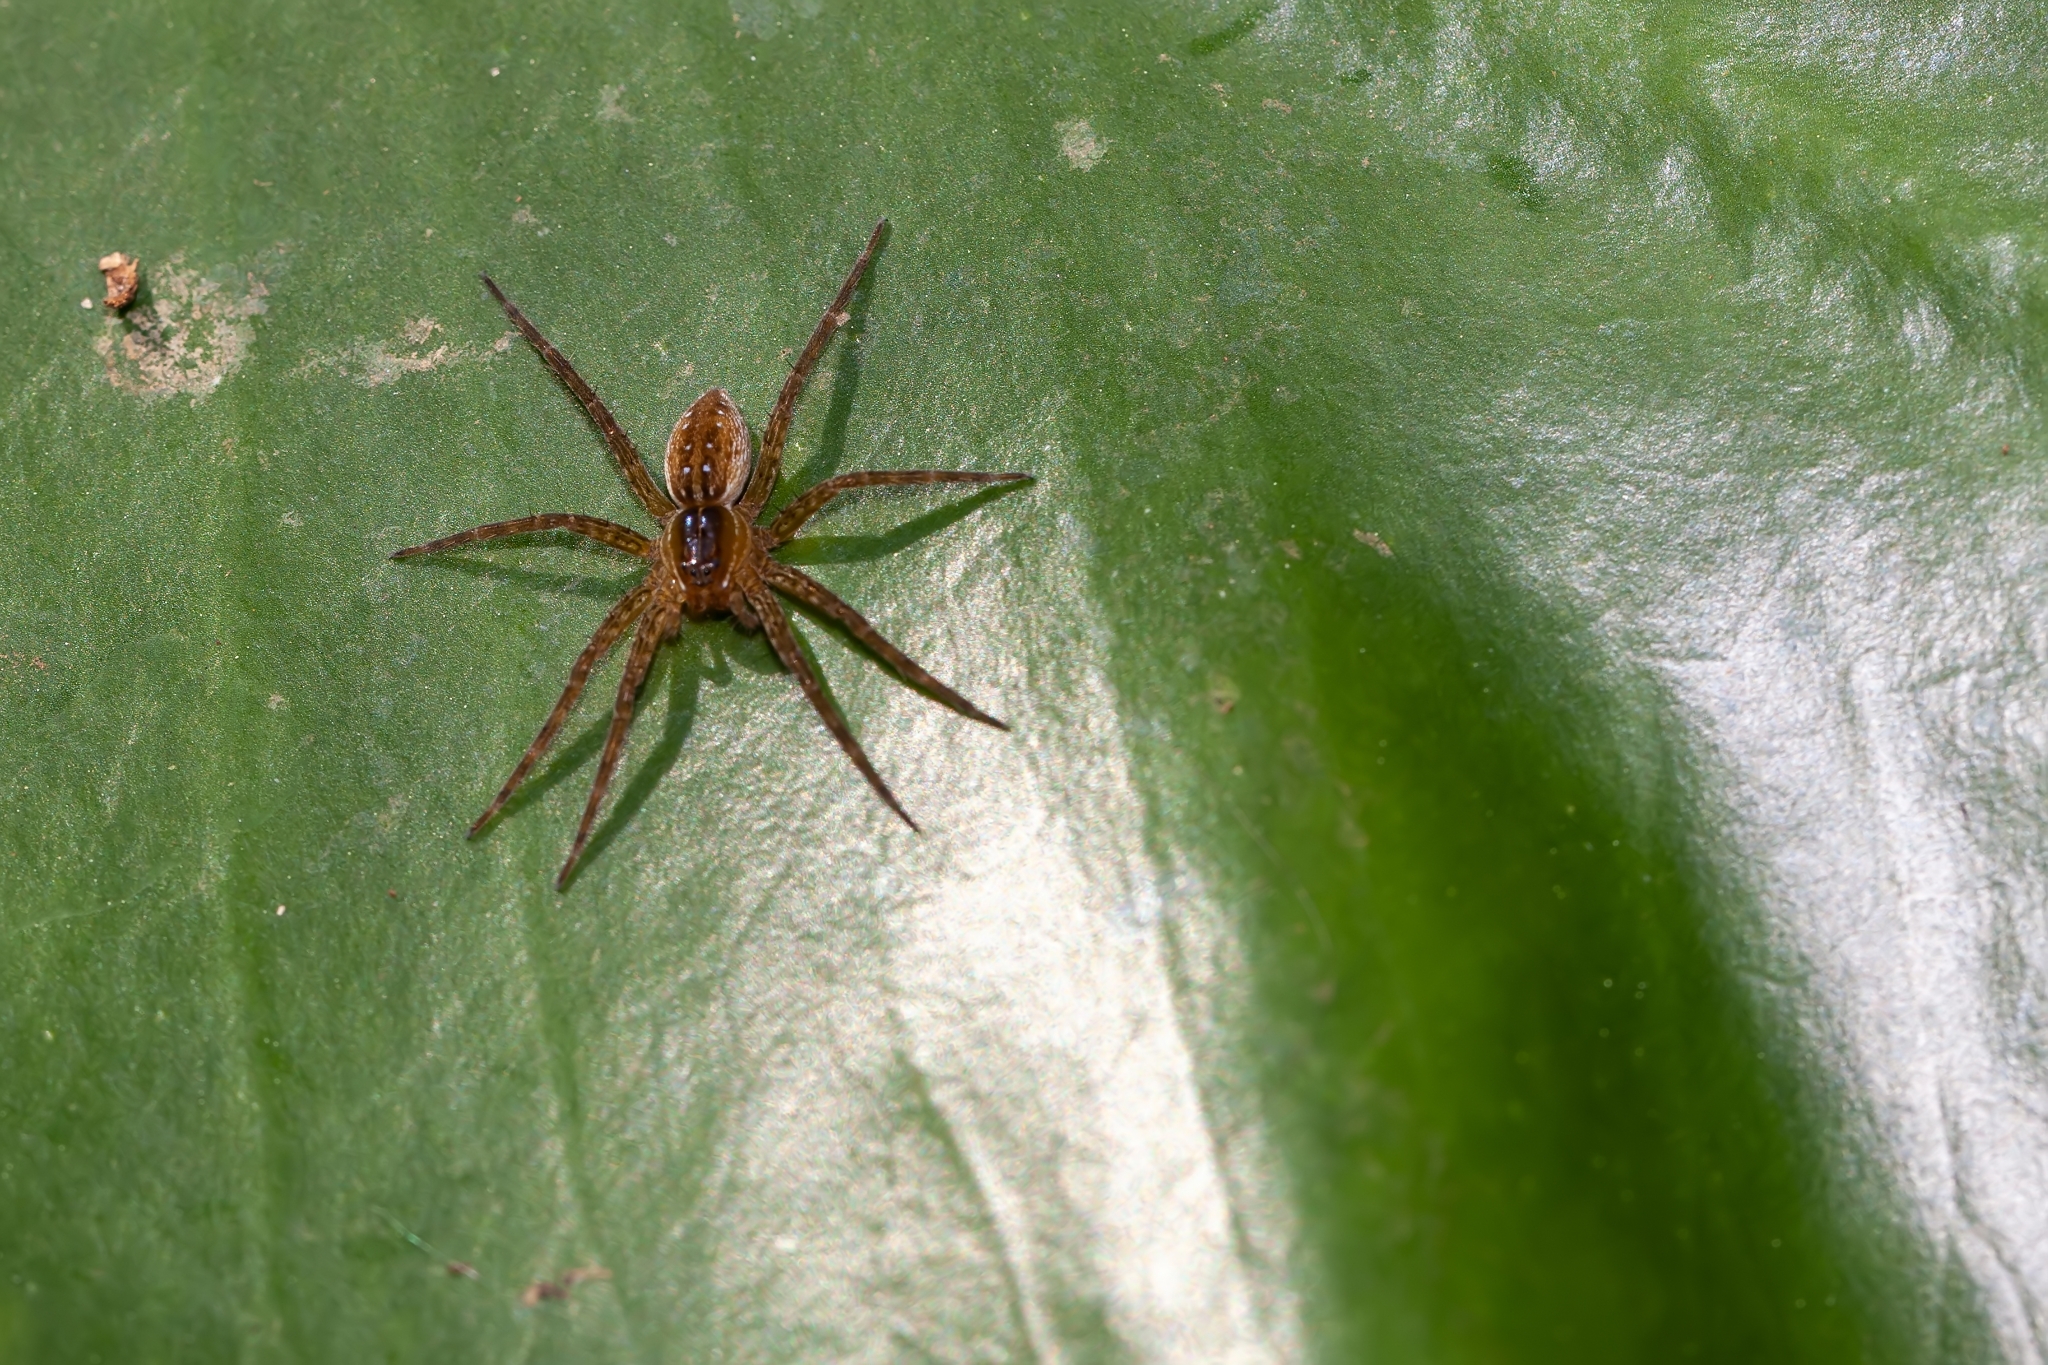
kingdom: Animalia
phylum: Arthropoda
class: Arachnida
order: Araneae
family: Pisauridae
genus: Dolomedes
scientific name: Dolomedes triton
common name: Six-spotted fishing spider
